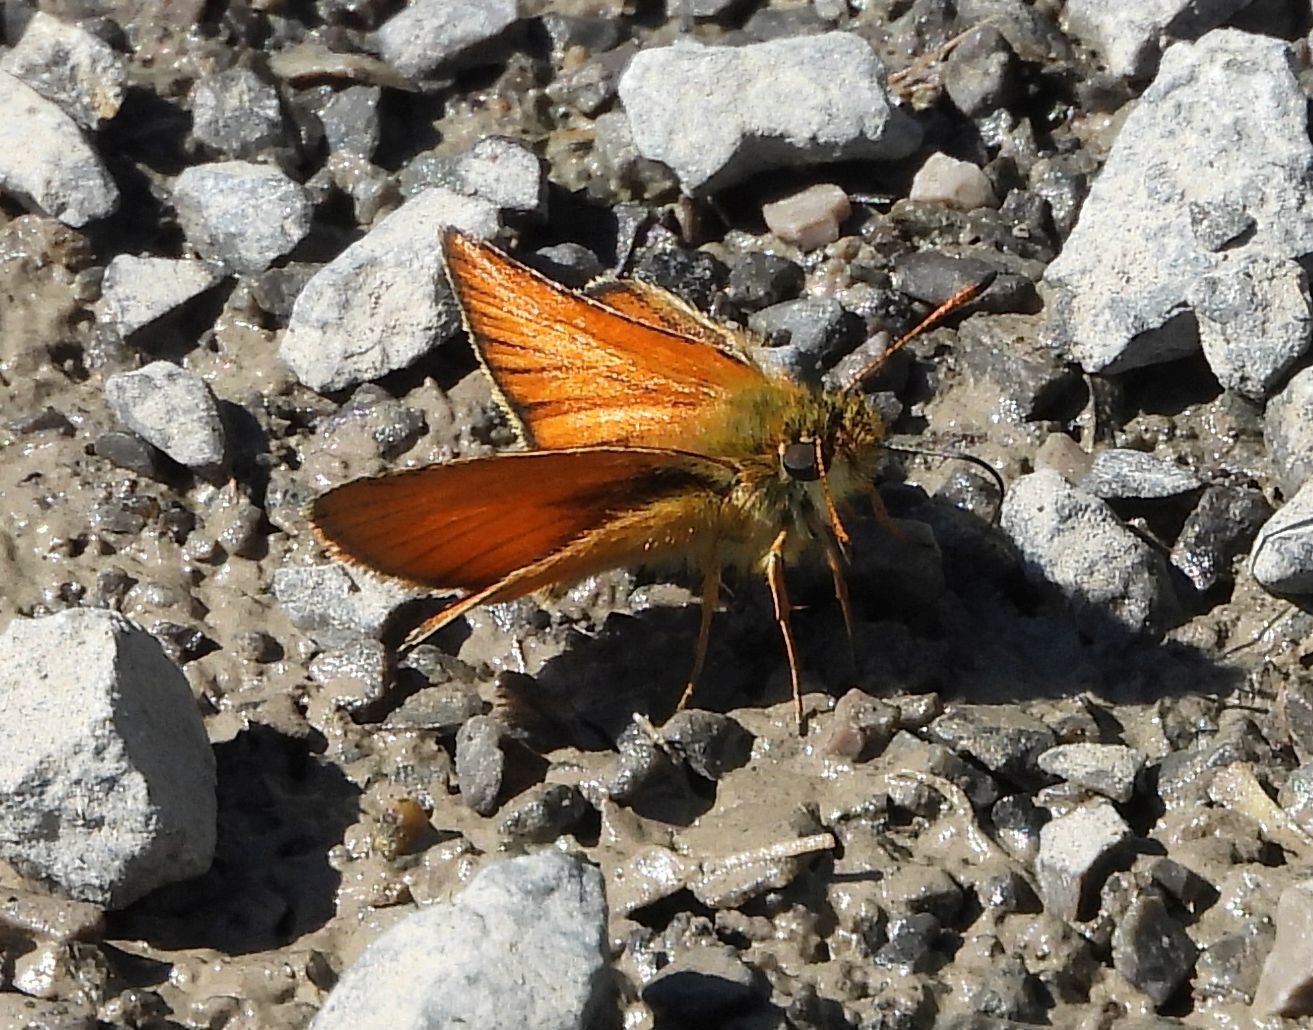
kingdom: Animalia
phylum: Arthropoda
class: Insecta
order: Lepidoptera
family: Hesperiidae
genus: Thymelicus
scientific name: Thymelicus lineola
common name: Essex skipper
